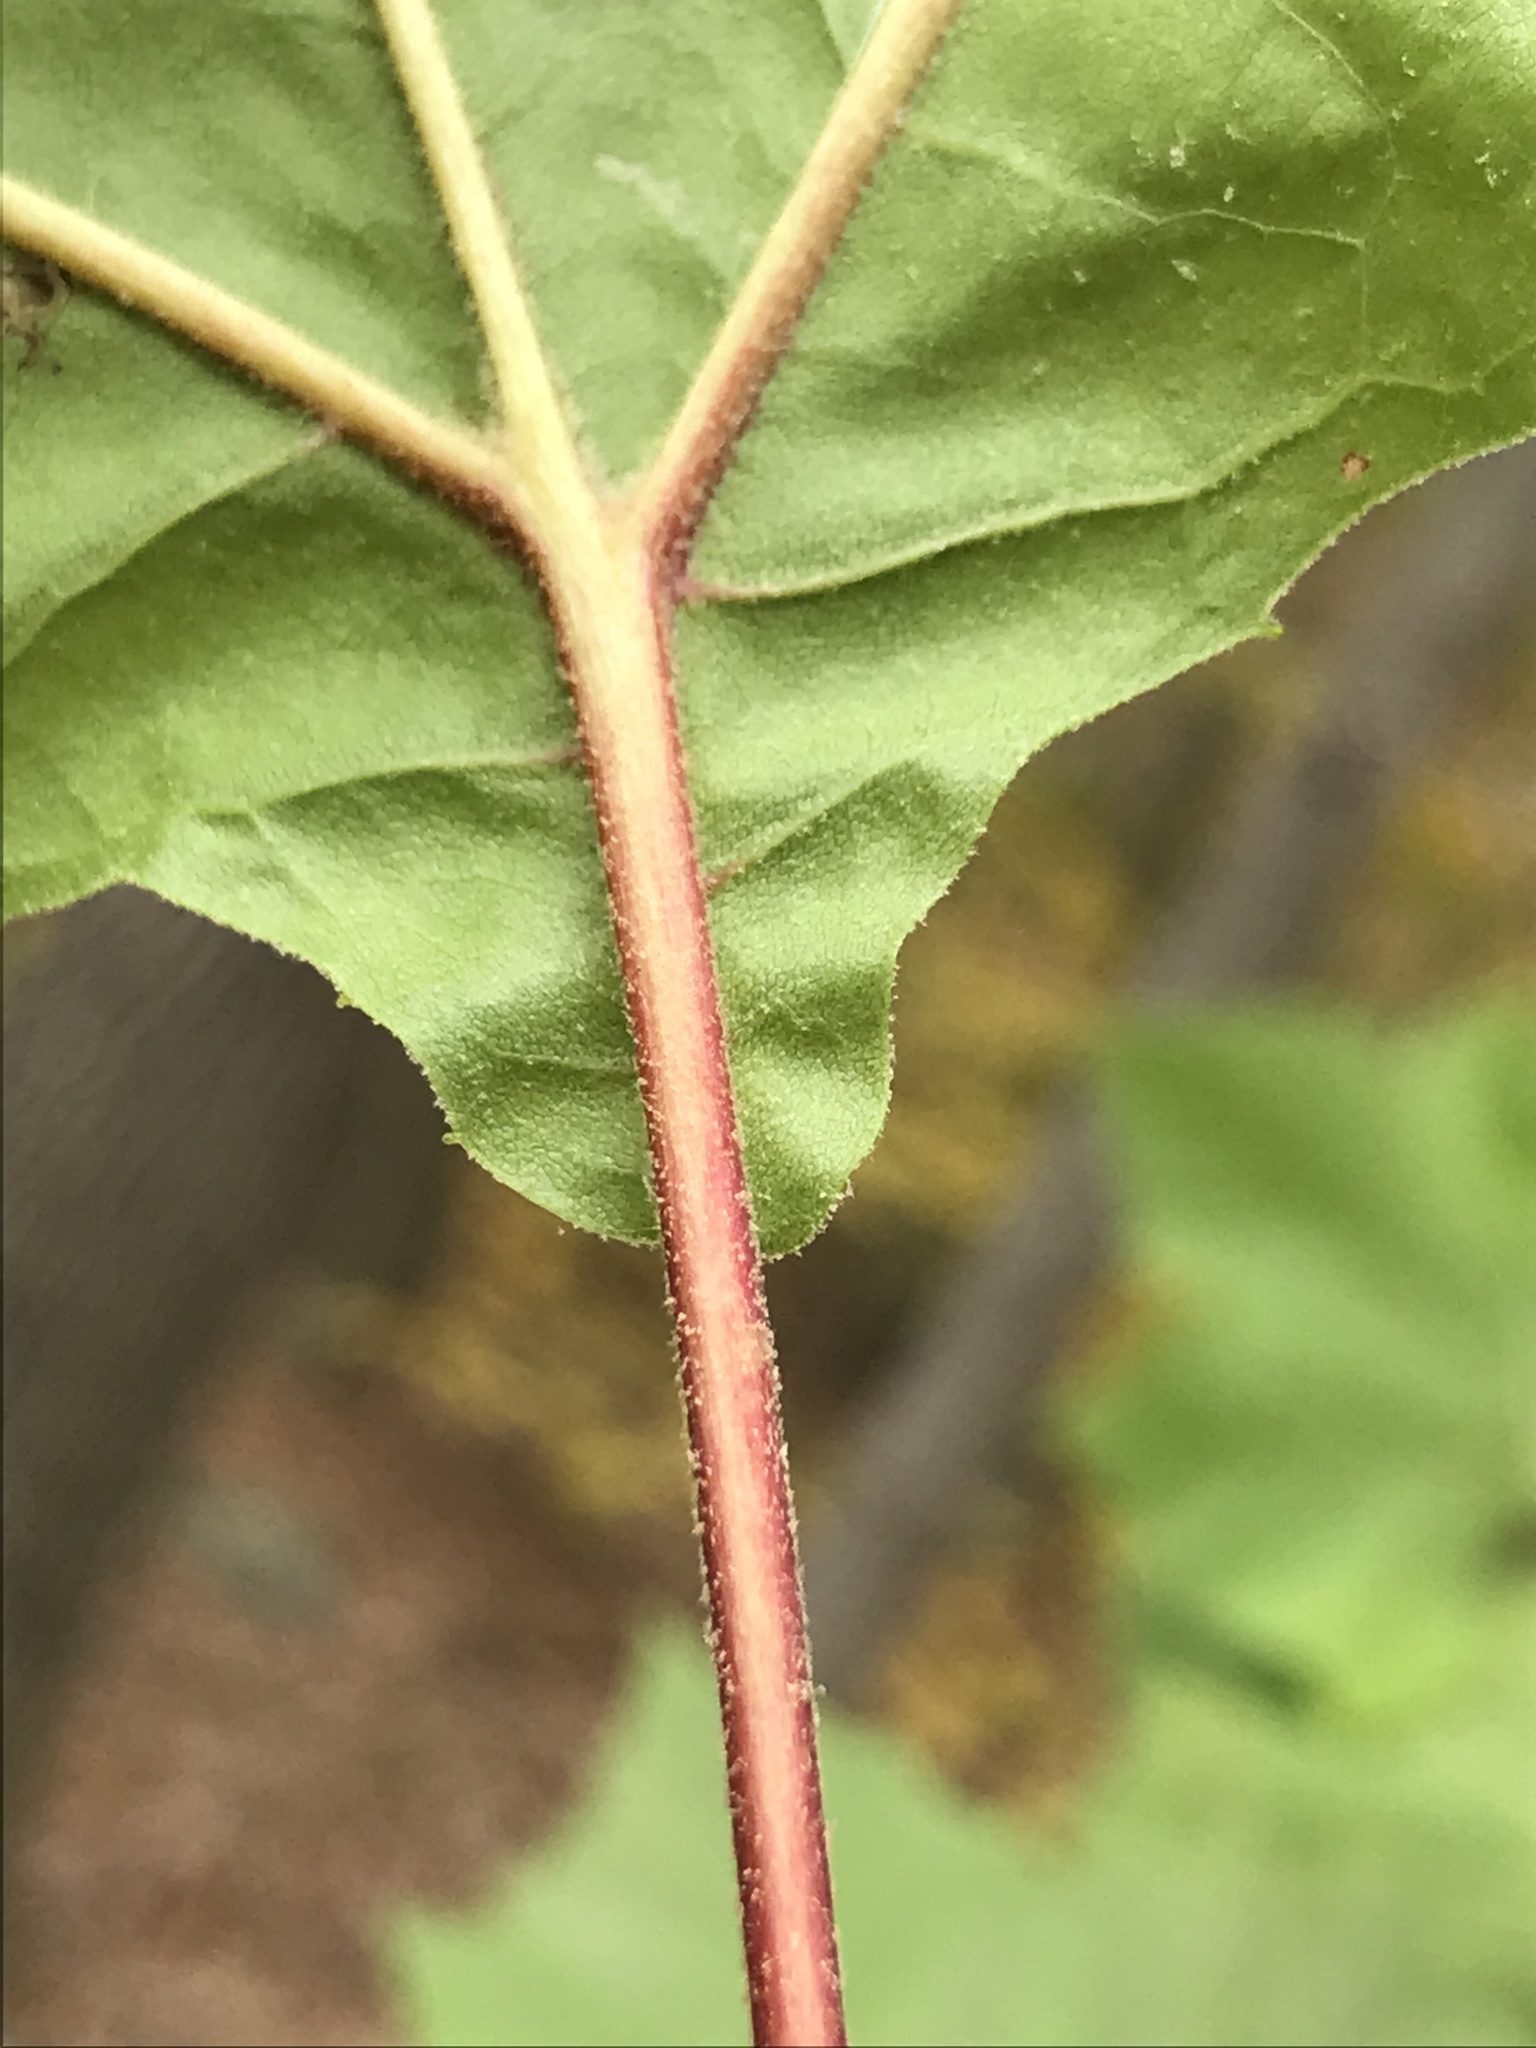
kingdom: Plantae
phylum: Tracheophyta
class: Magnoliopsida
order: Proteales
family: Platanaceae
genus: Platanus
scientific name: Platanus occidentalis
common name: American sycamore
